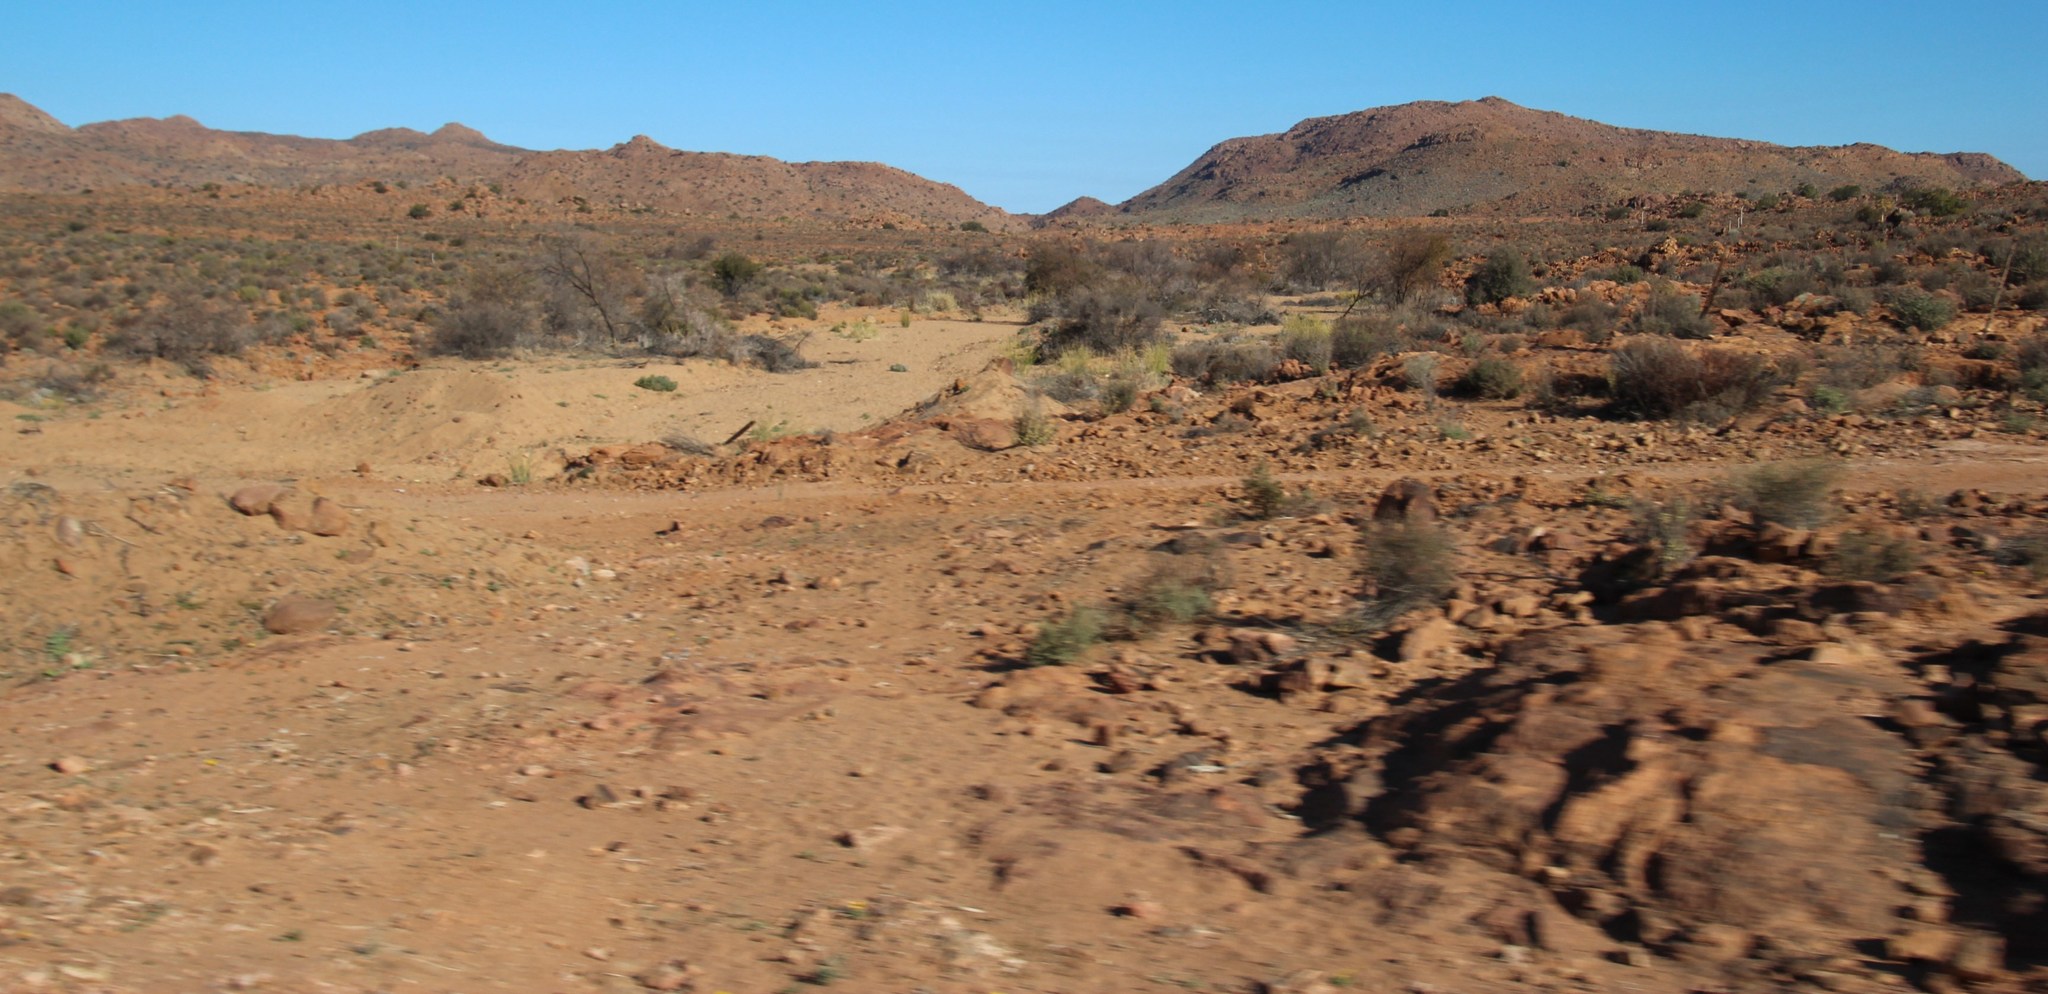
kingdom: Plantae
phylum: Tracheophyta
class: Magnoliopsida
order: Fabales
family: Fabaceae
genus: Vachellia
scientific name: Vachellia karroo
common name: Sweet thorn
